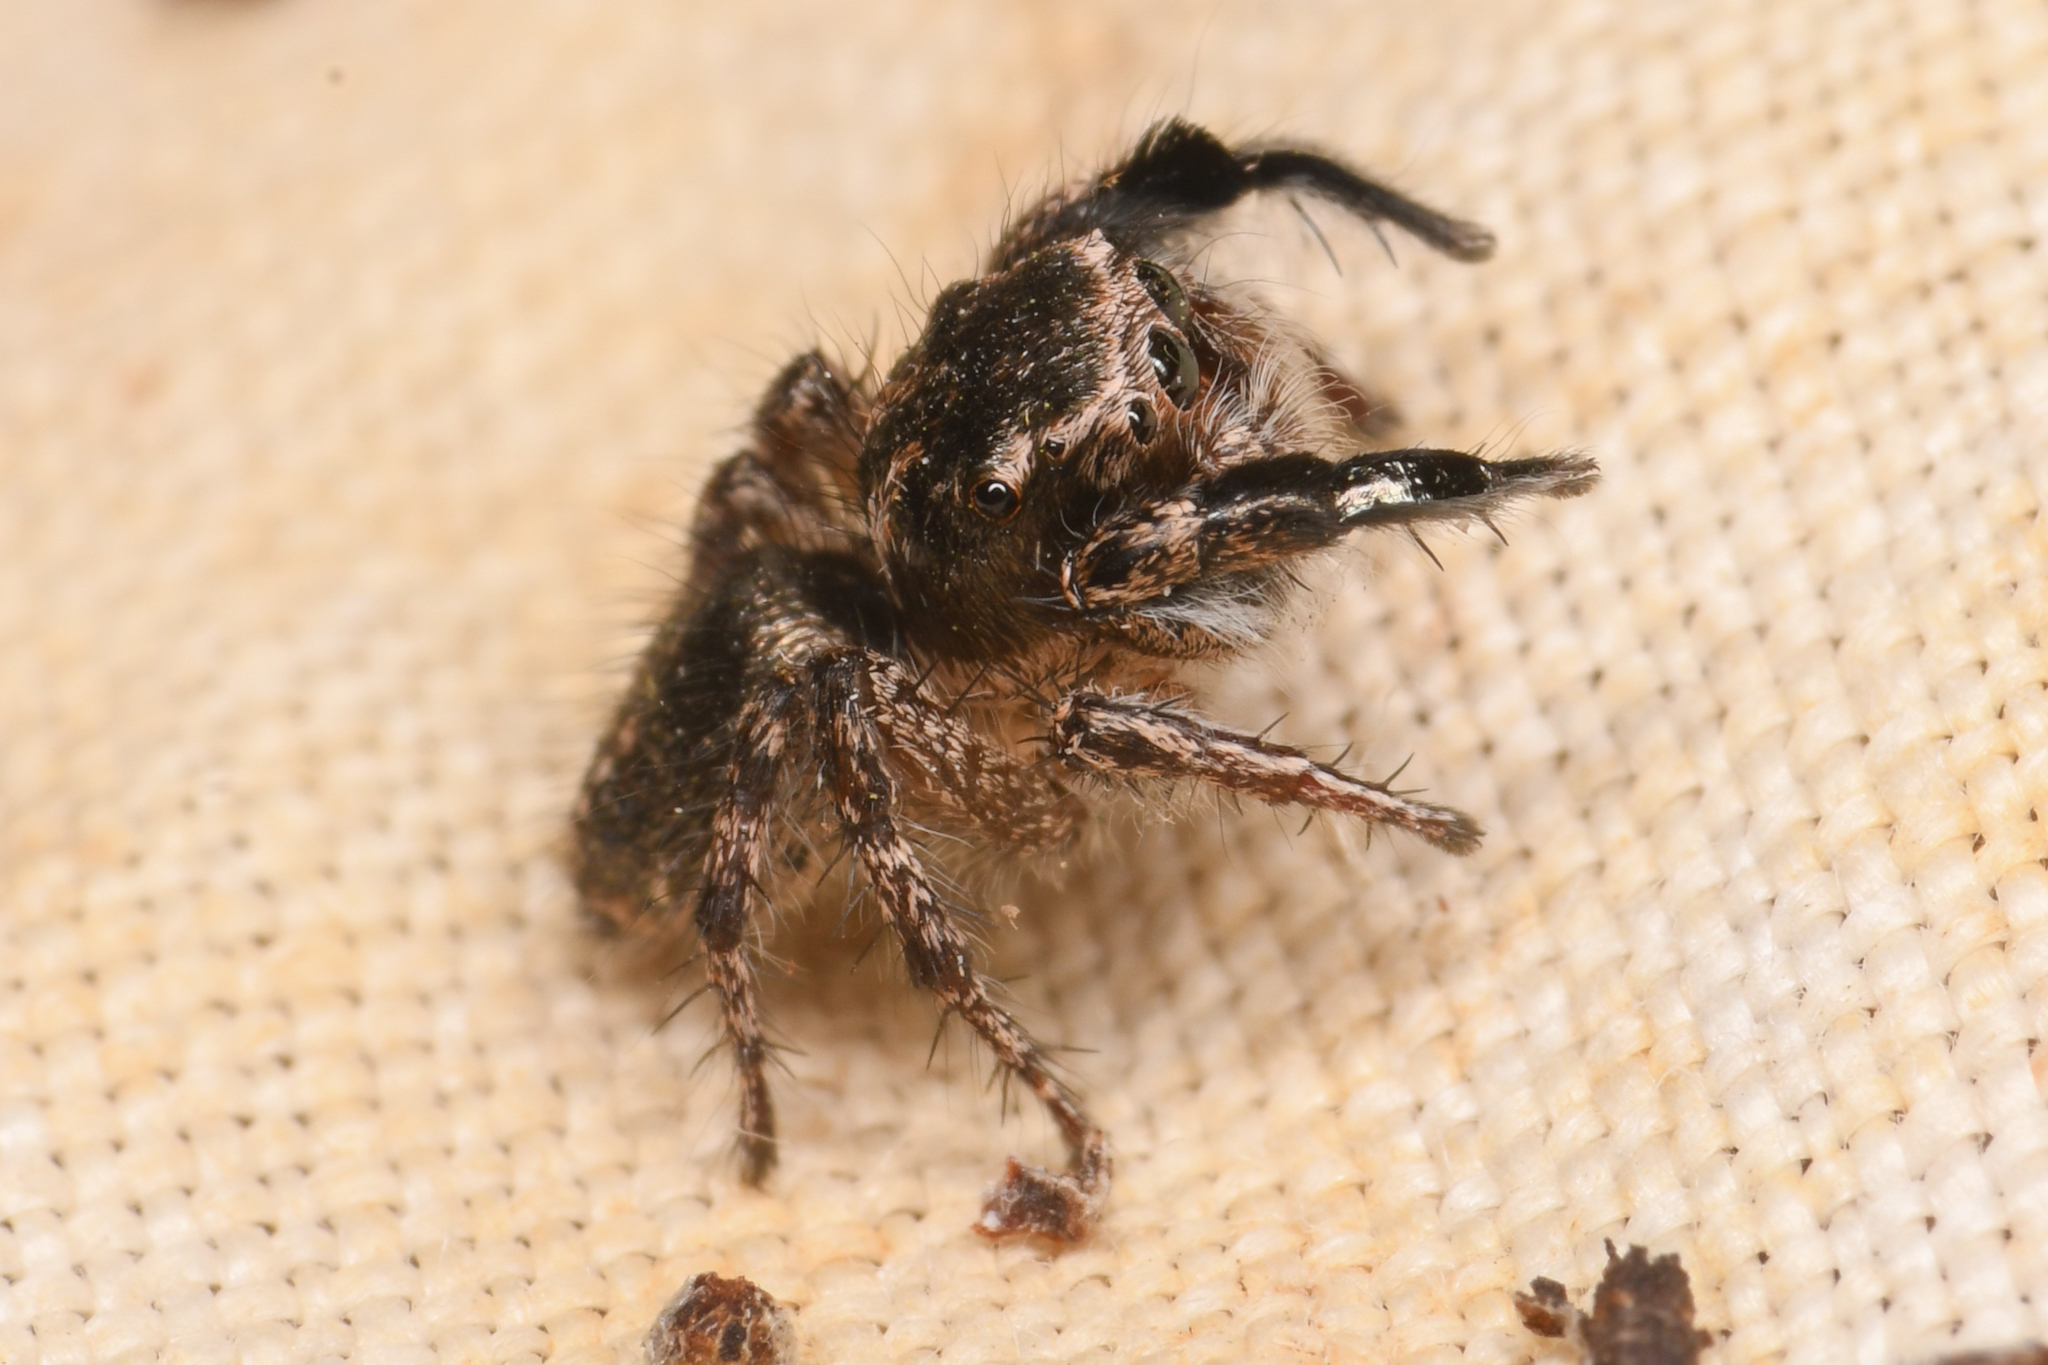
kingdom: Animalia
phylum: Arthropoda
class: Arachnida
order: Araneae
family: Salticidae
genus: Habronattus
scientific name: Habronattus hirsutus
